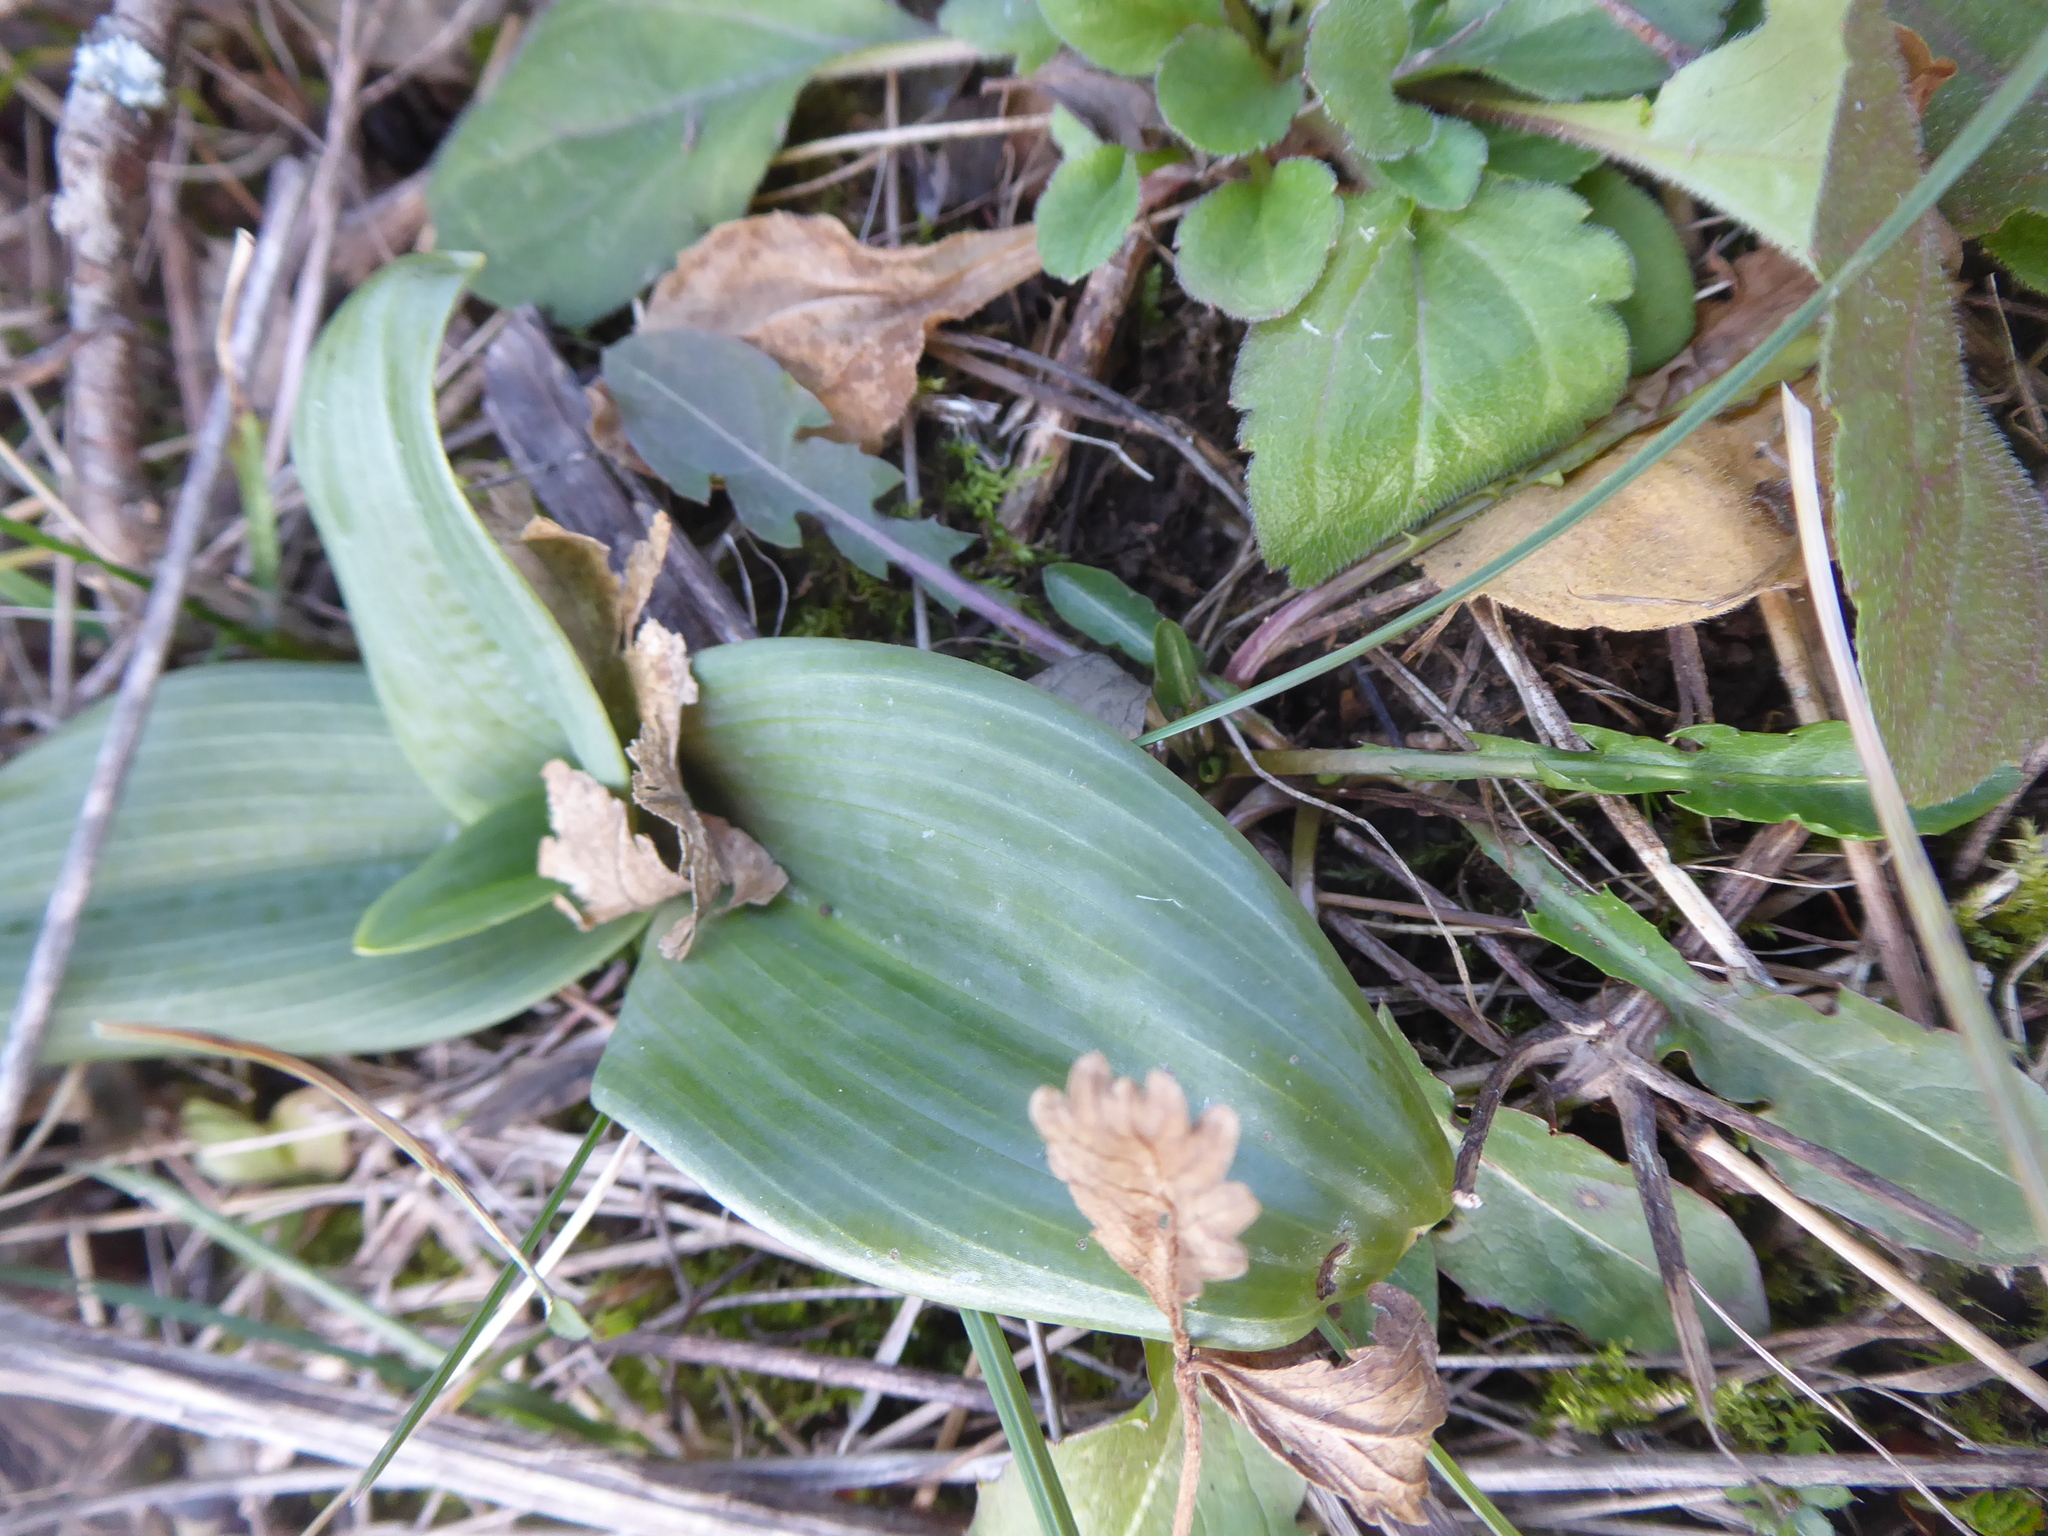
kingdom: Plantae
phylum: Tracheophyta
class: Liliopsida
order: Asparagales
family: Orchidaceae
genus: Himantoglossum
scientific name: Himantoglossum adriaticum
